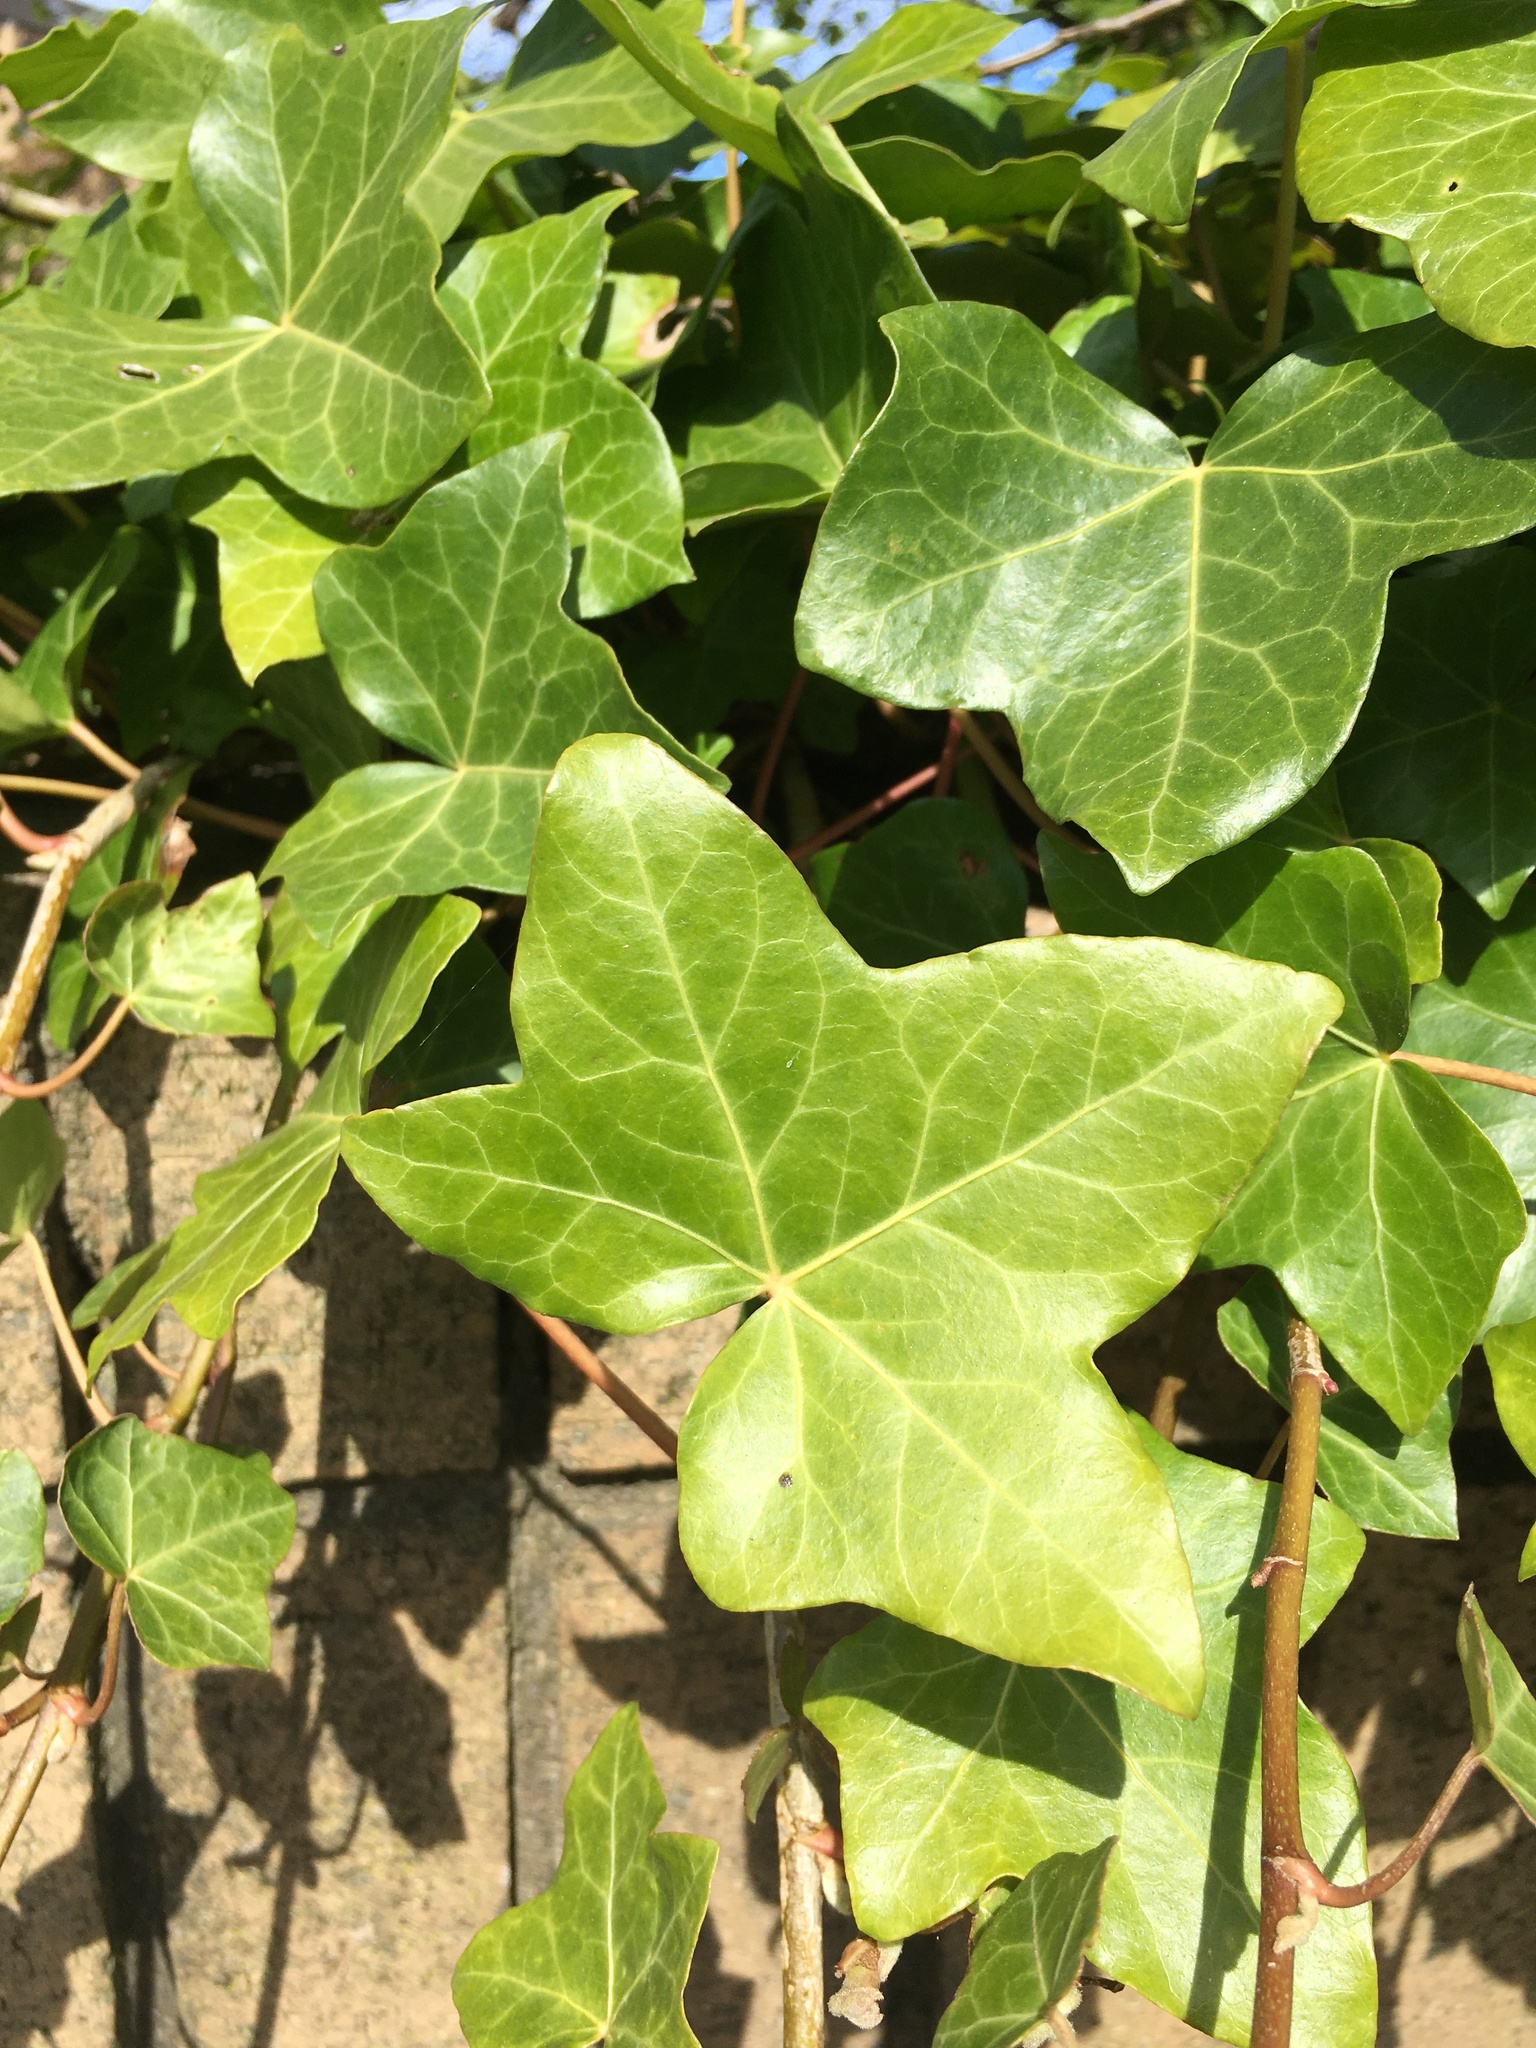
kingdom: Plantae
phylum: Tracheophyta
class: Magnoliopsida
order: Apiales
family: Araliaceae
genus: Hedera
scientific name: Hedera helix
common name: Ivy
